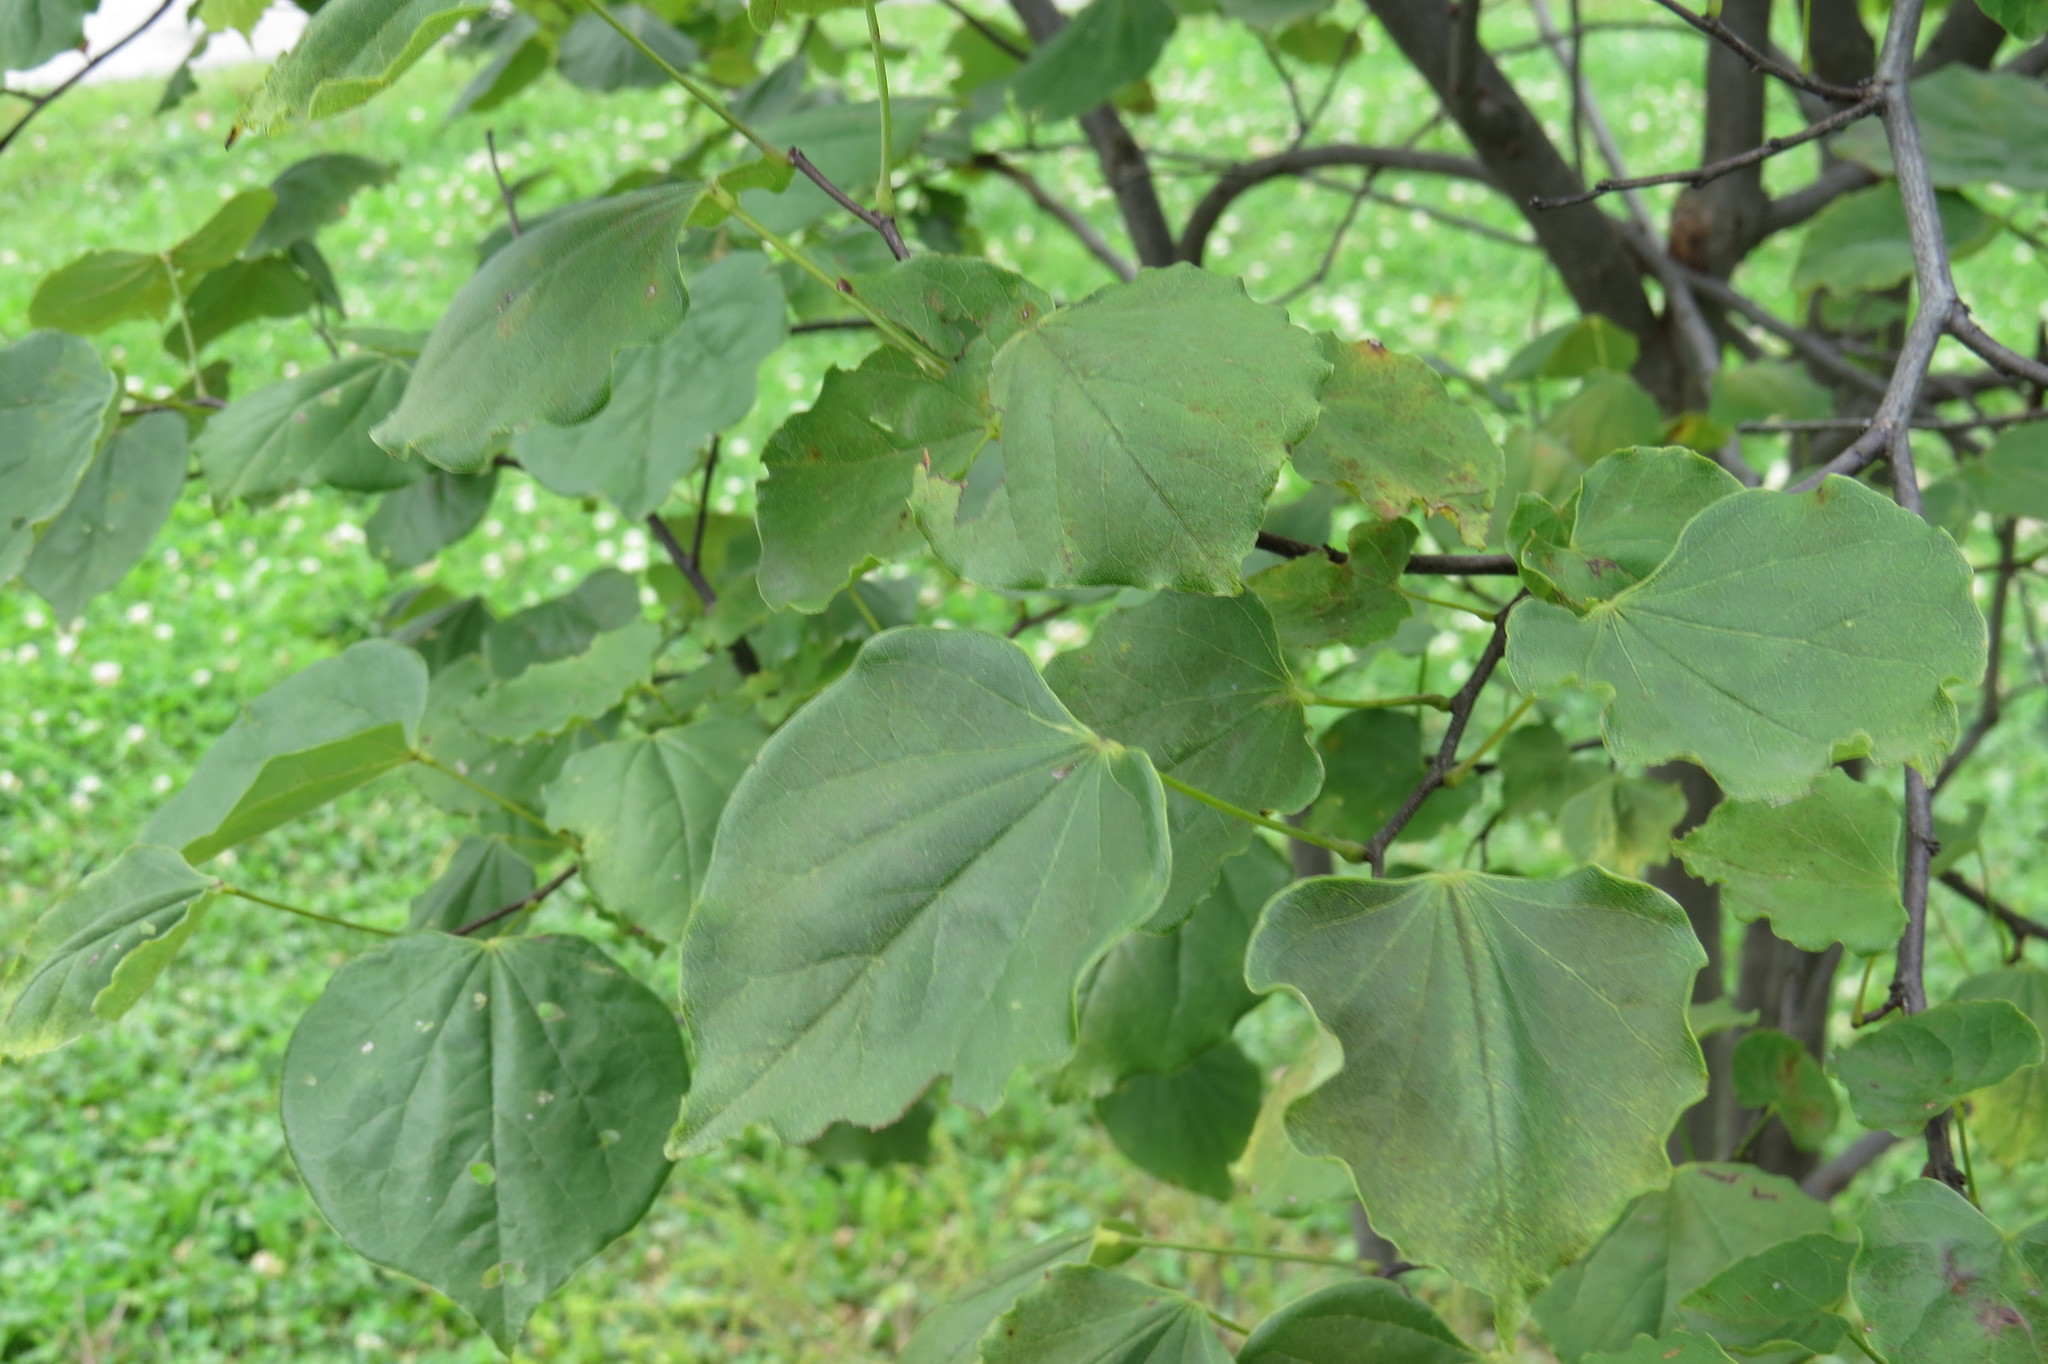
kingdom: Plantae
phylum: Tracheophyta
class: Magnoliopsida
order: Fabales
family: Fabaceae
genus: Cercis
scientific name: Cercis canadensis
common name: Eastern redbud
